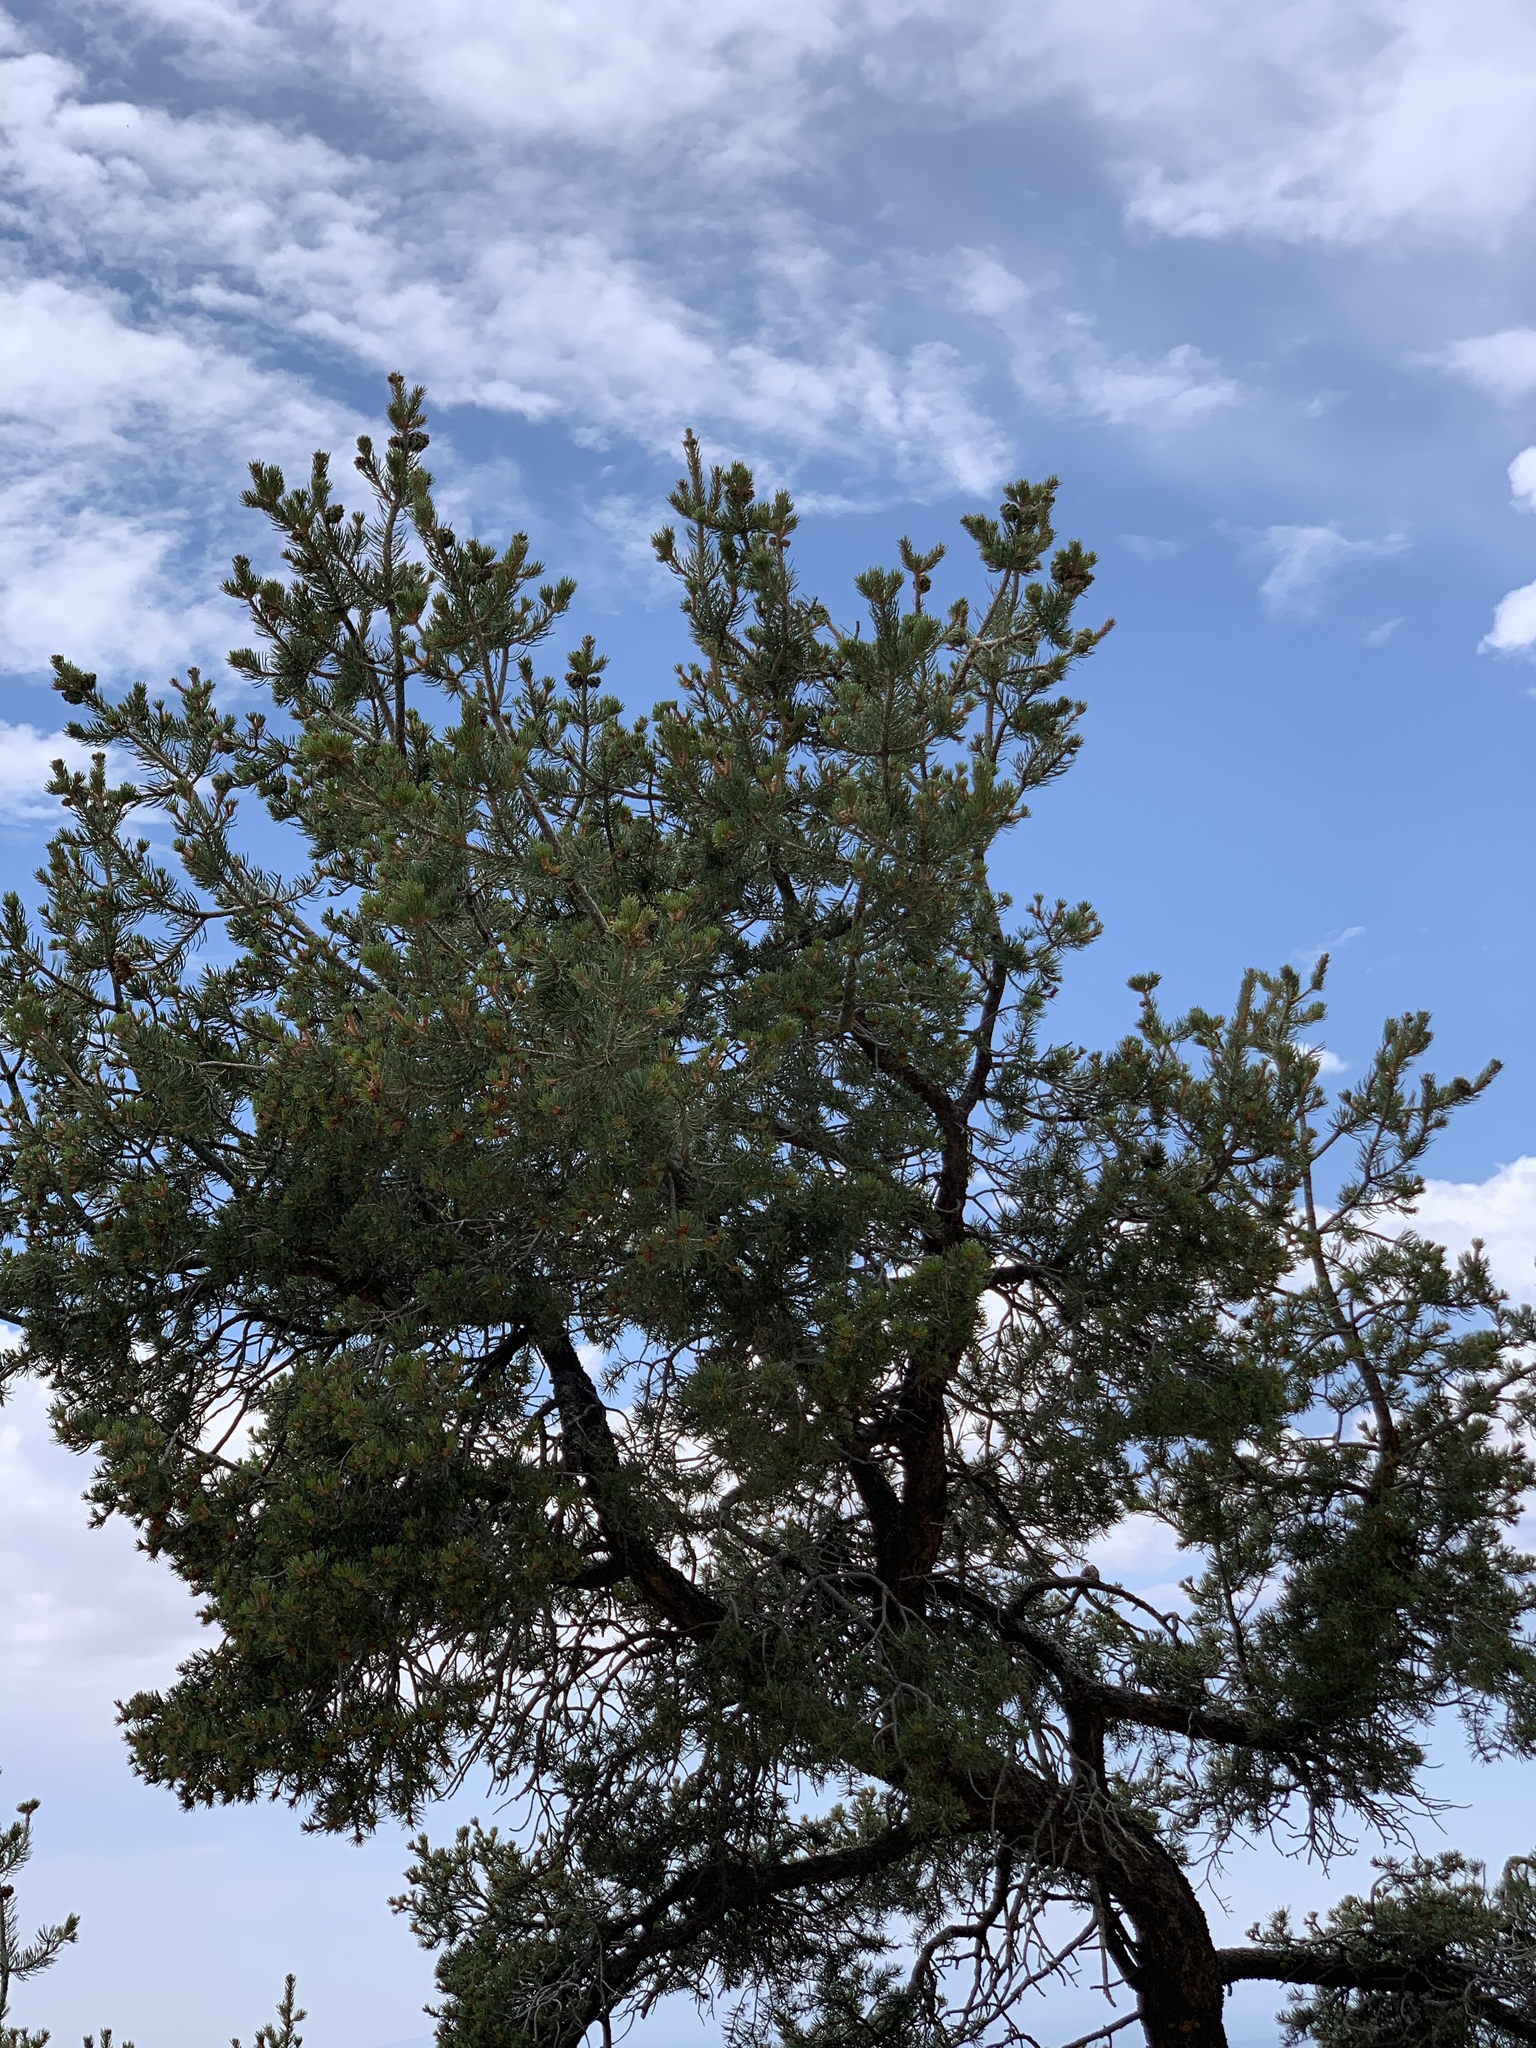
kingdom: Plantae
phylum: Tracheophyta
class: Pinopsida
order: Pinales
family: Pinaceae
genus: Pinus
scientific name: Pinus edulis
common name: Colorado pinyon
